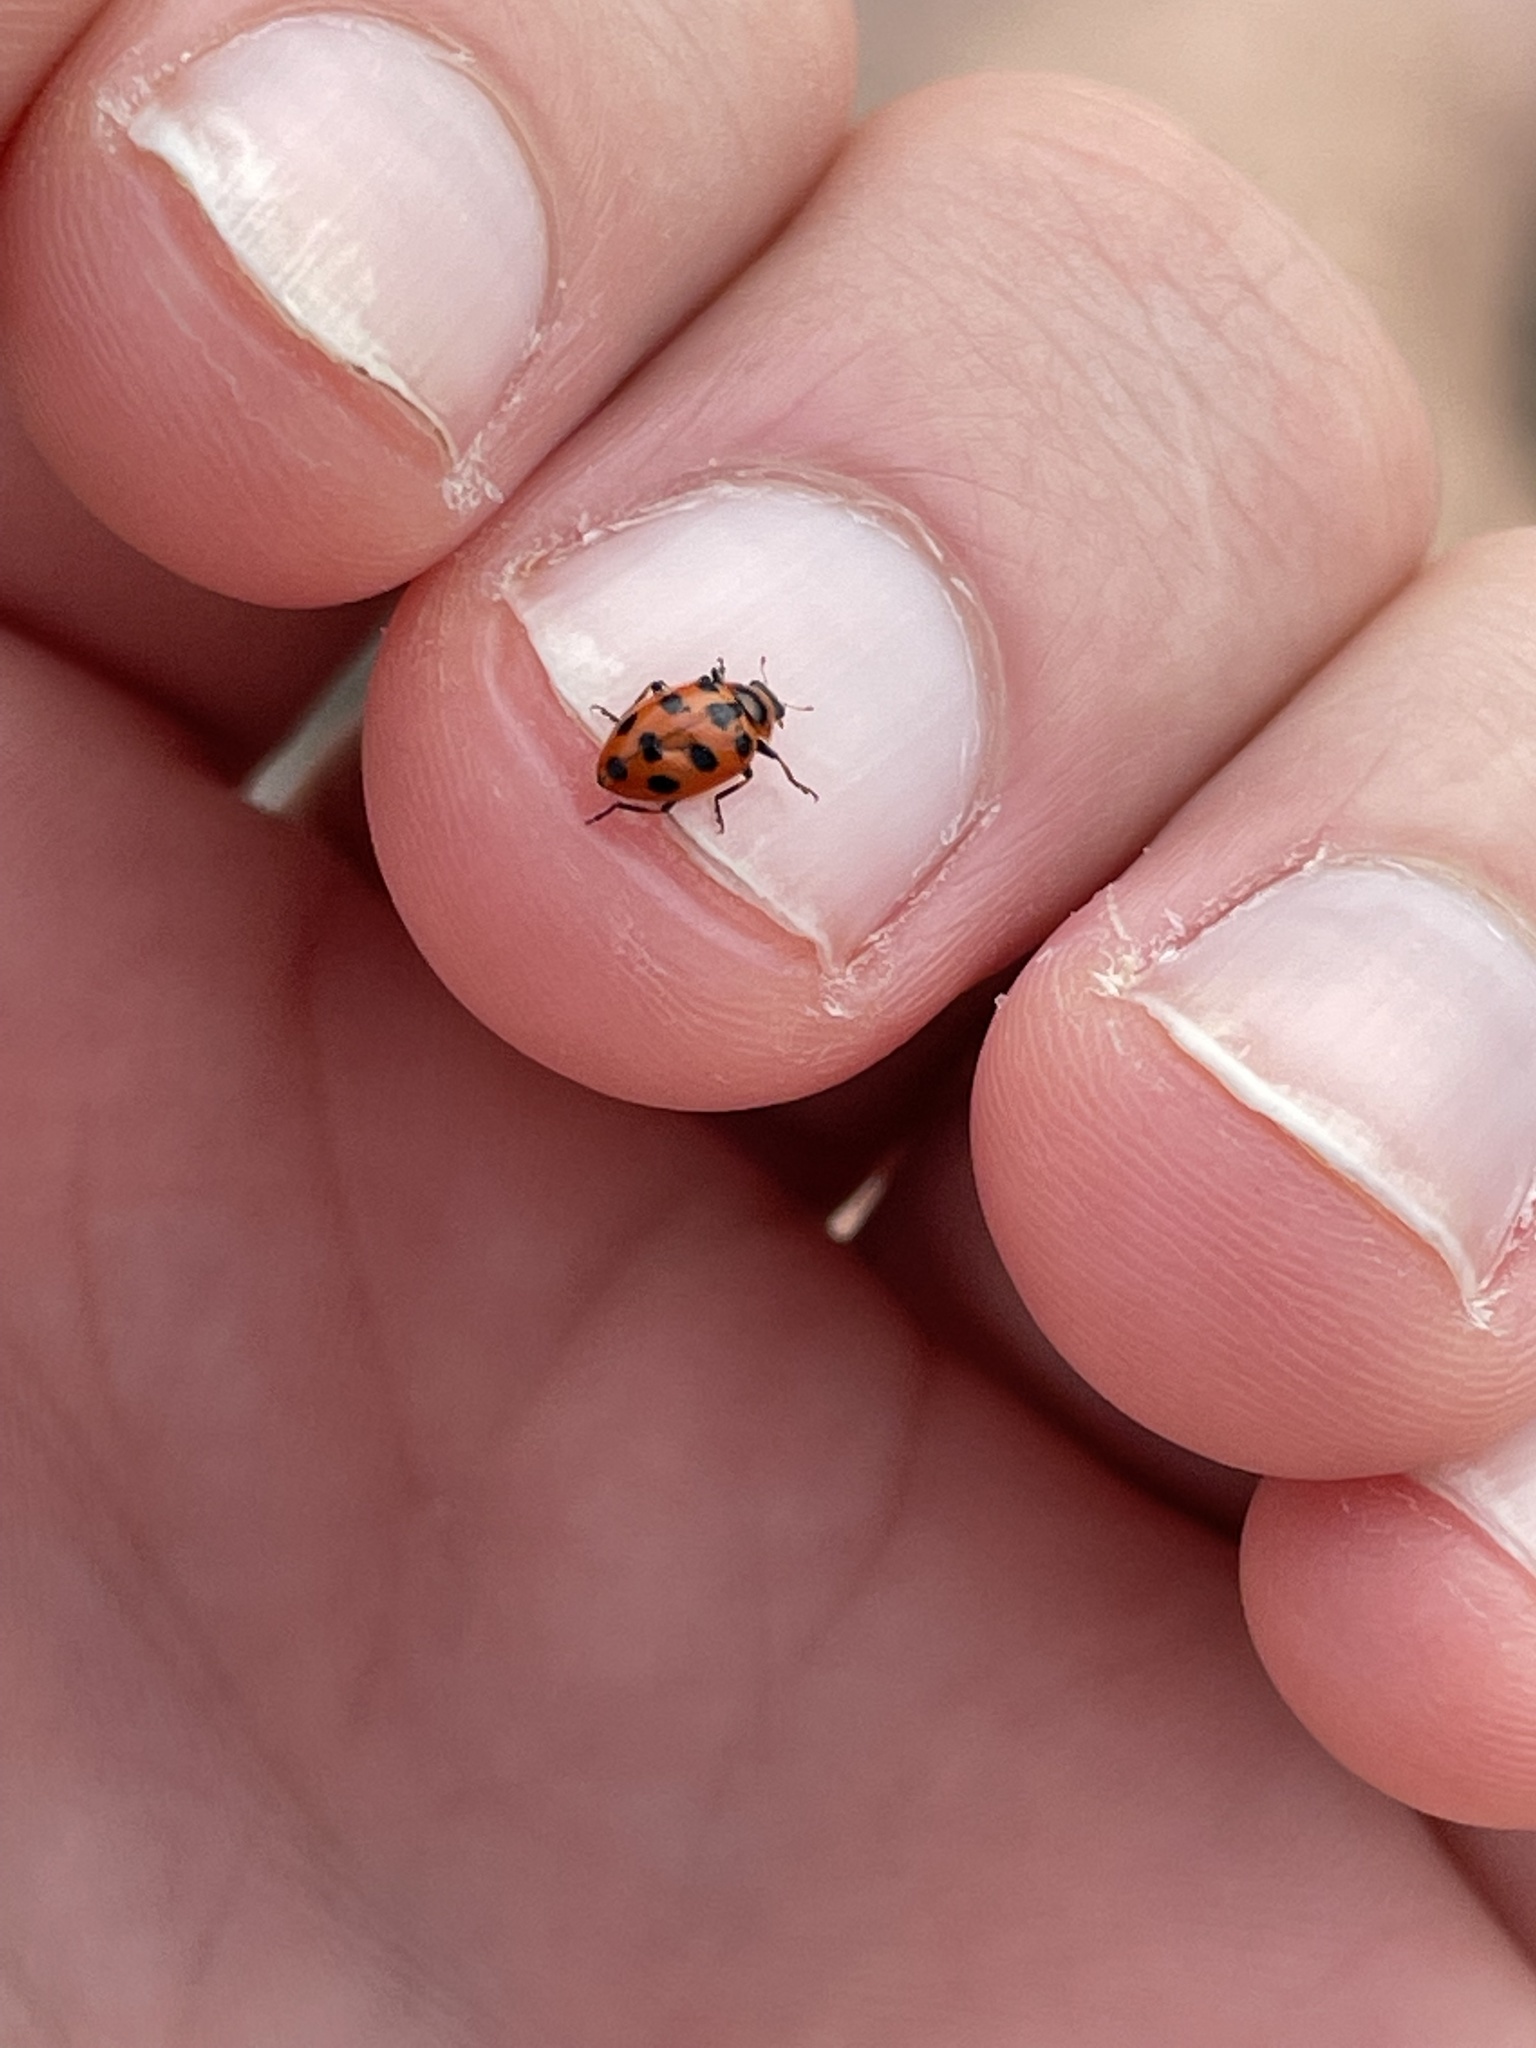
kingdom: Animalia
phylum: Arthropoda
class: Insecta
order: Coleoptera
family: Coccinellidae
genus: Naemia
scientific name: Naemia seriata
